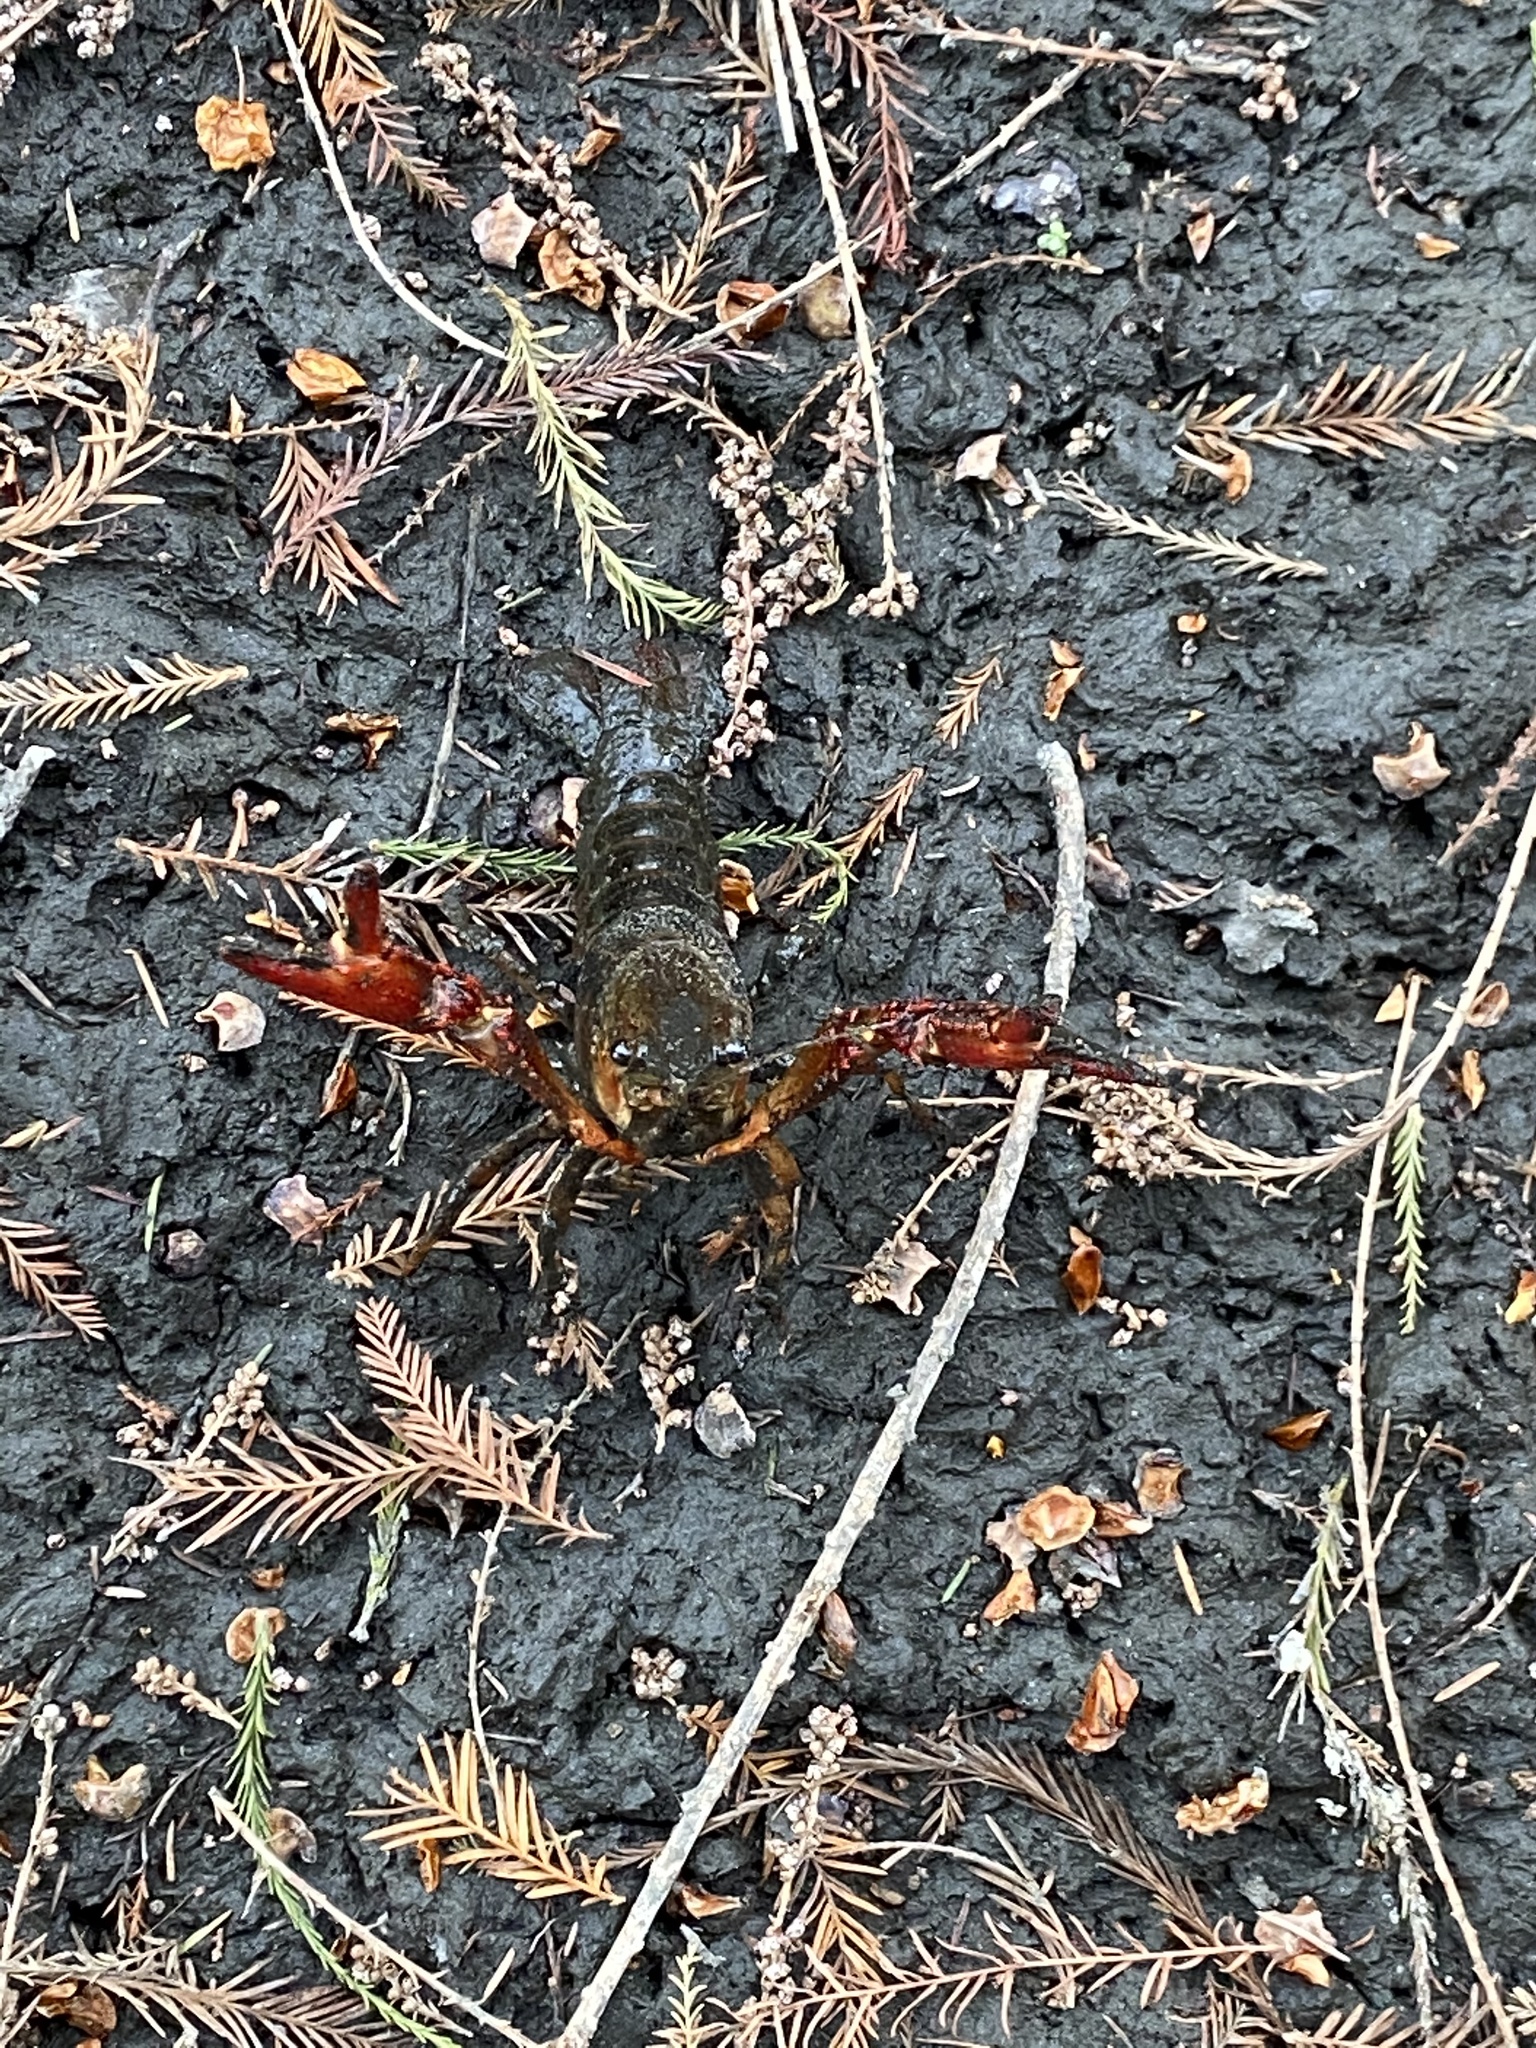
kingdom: Animalia
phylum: Arthropoda
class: Malacostraca
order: Decapoda
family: Cambaridae
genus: Procambarus
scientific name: Procambarus clarkii
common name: Red swamp crayfish
